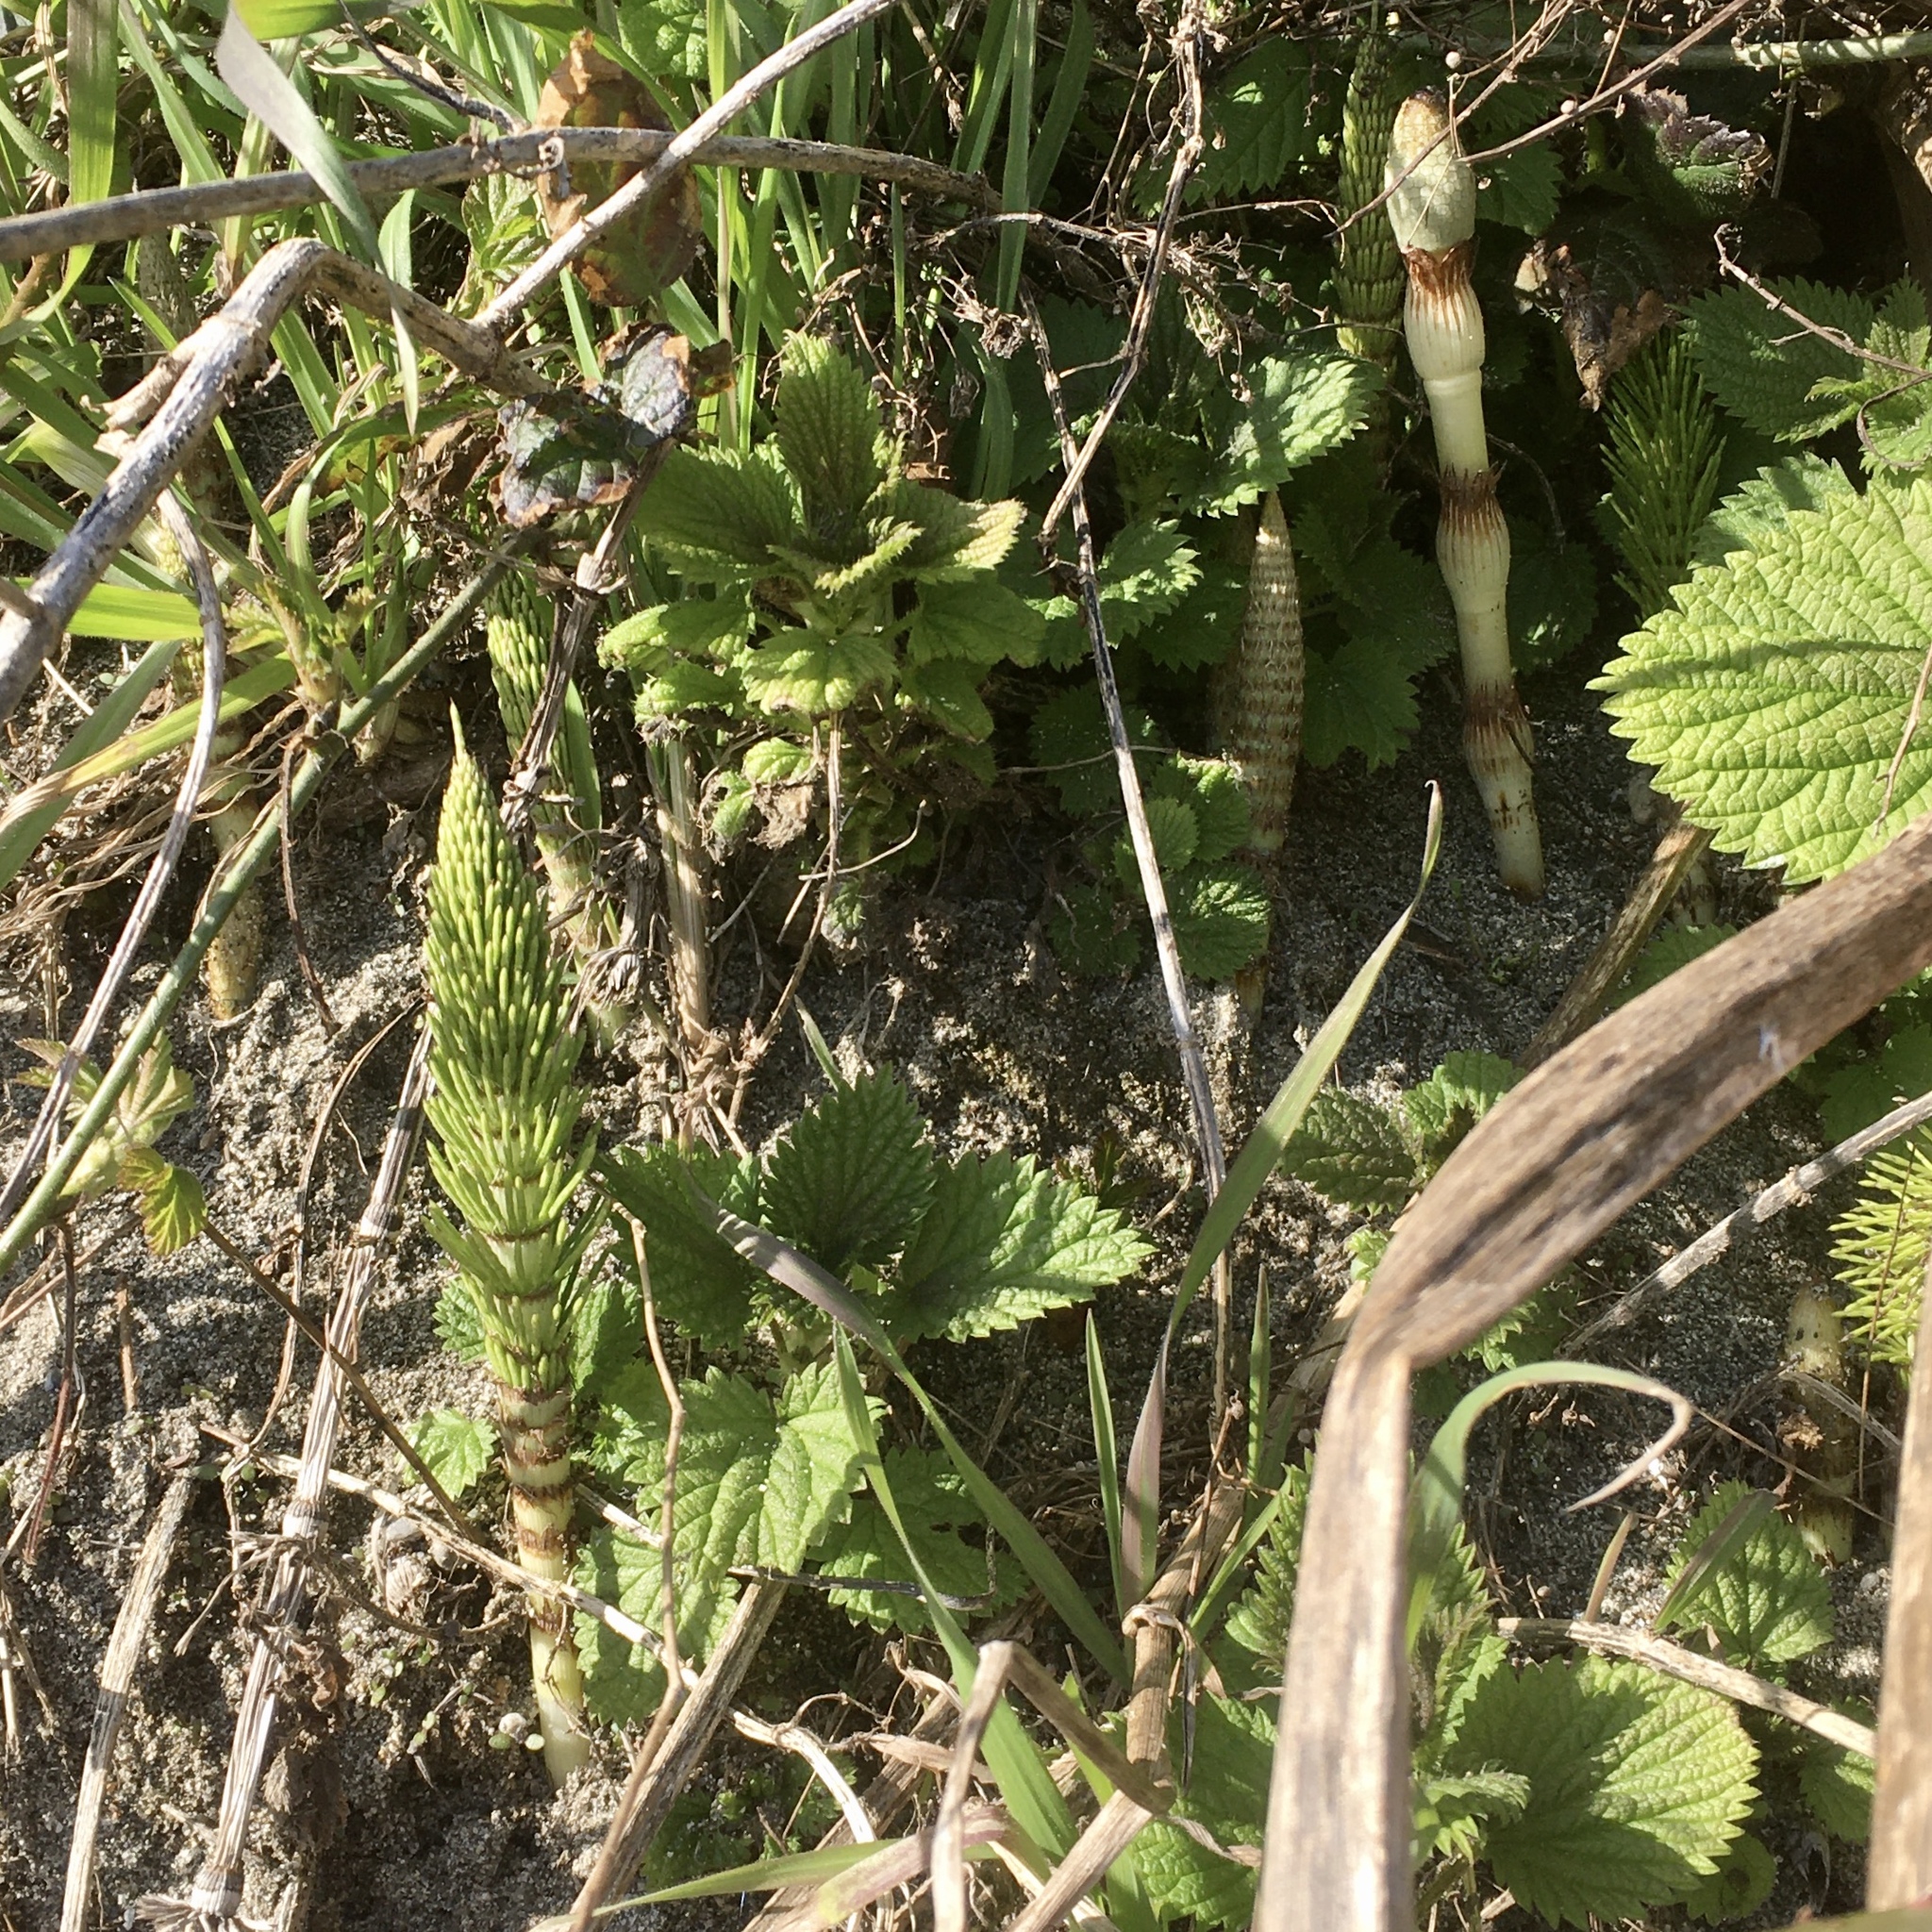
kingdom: Plantae
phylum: Tracheophyta
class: Polypodiopsida
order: Equisetales
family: Equisetaceae
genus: Equisetum
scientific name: Equisetum braunii
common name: Braun's horsetail
